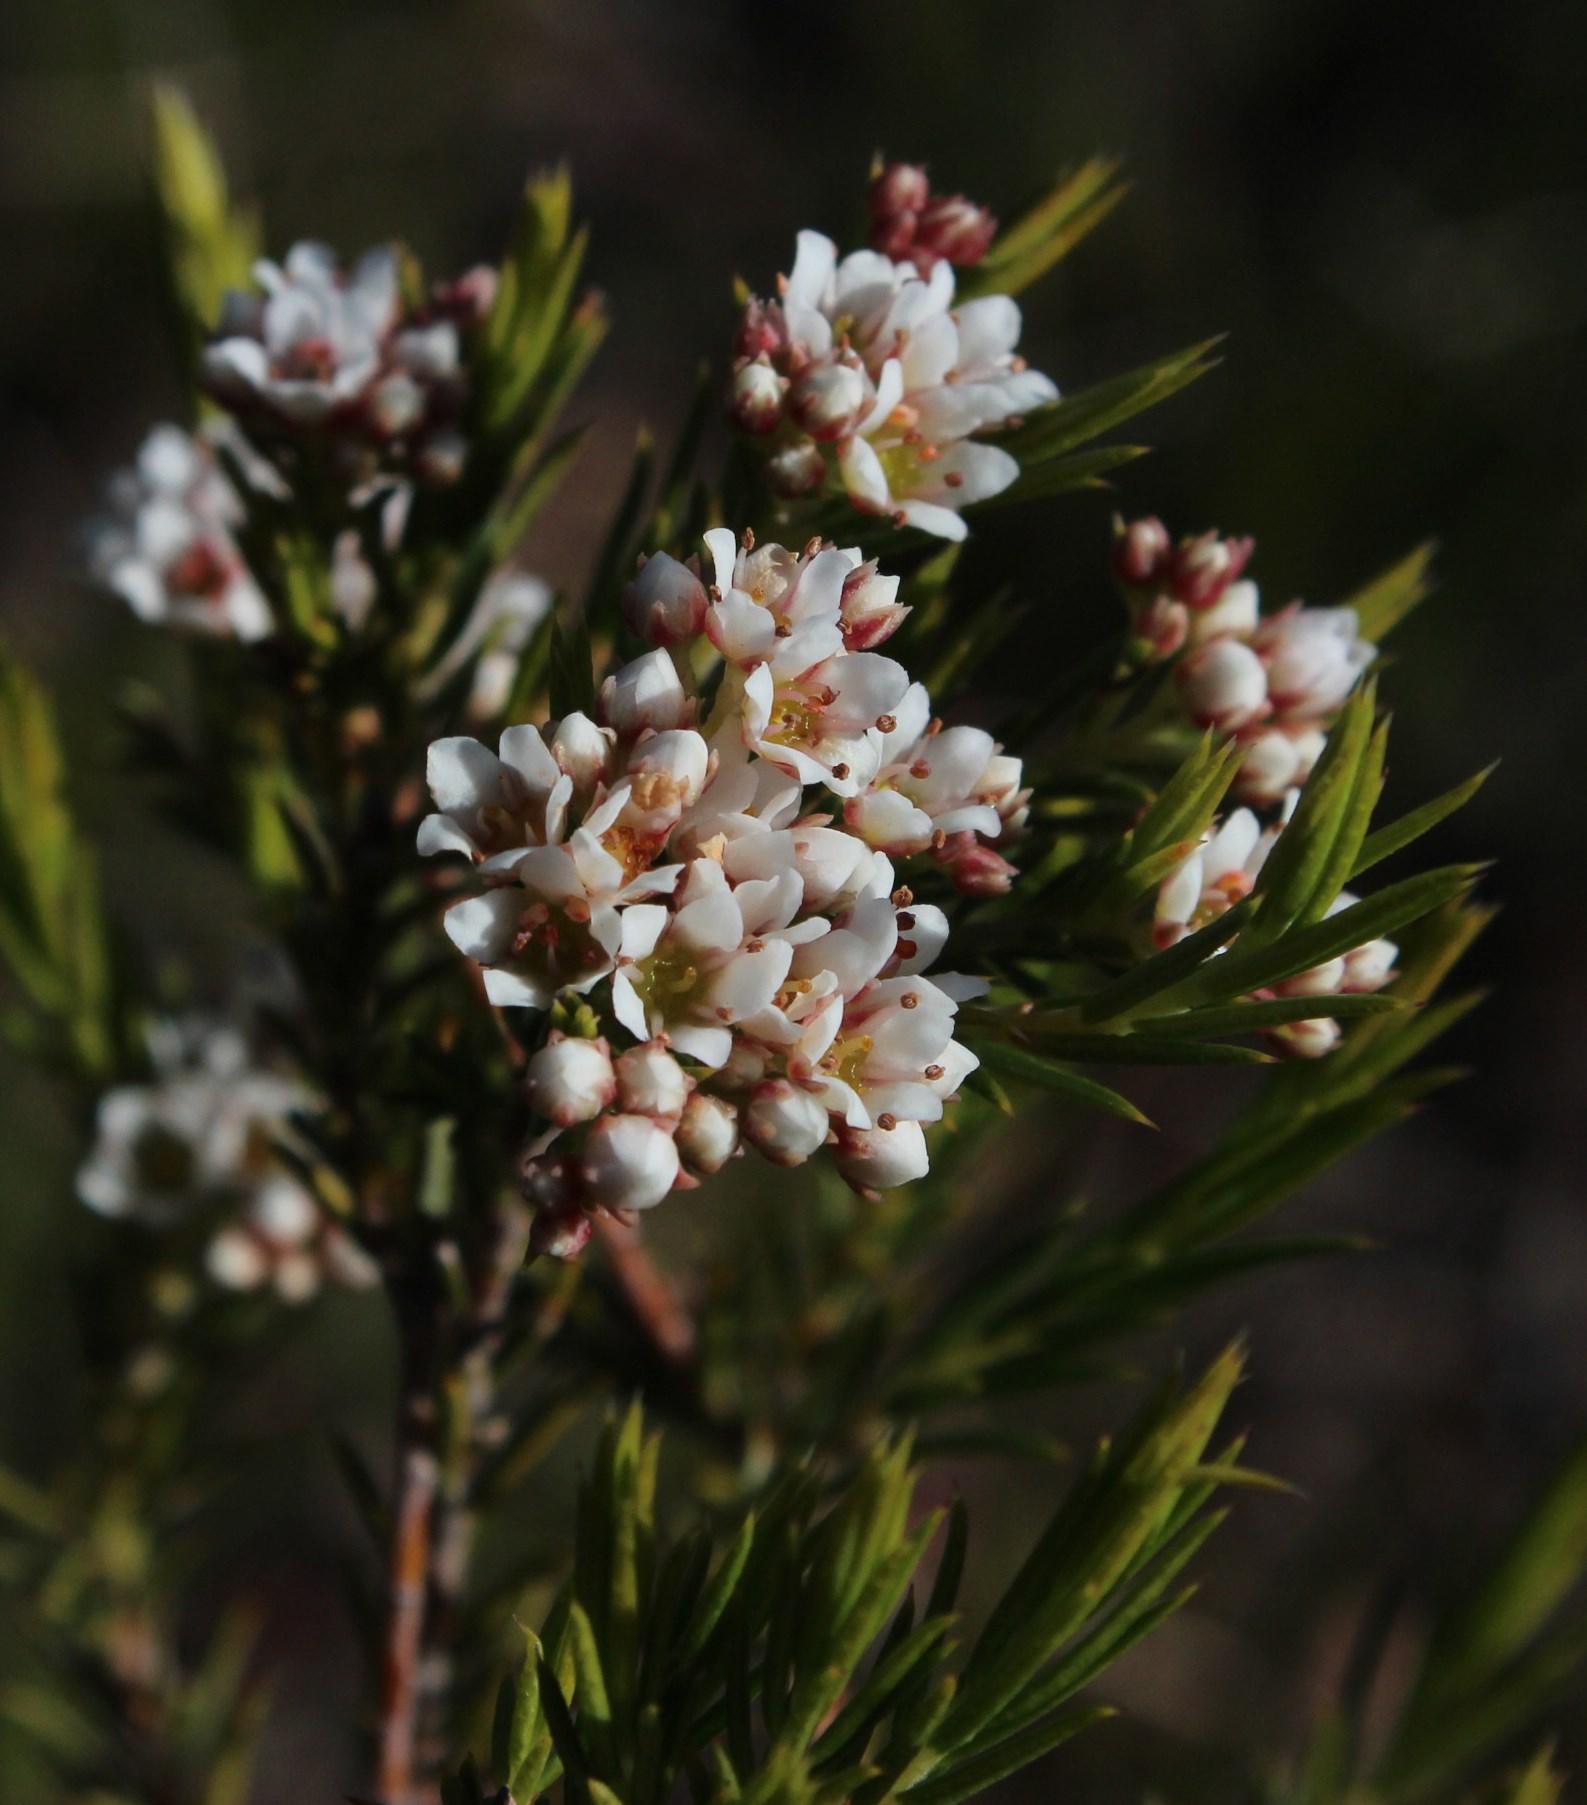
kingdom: Plantae
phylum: Tracheophyta
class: Magnoliopsida
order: Sapindales
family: Rutaceae
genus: Diosma
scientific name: Diosma hirsuta
